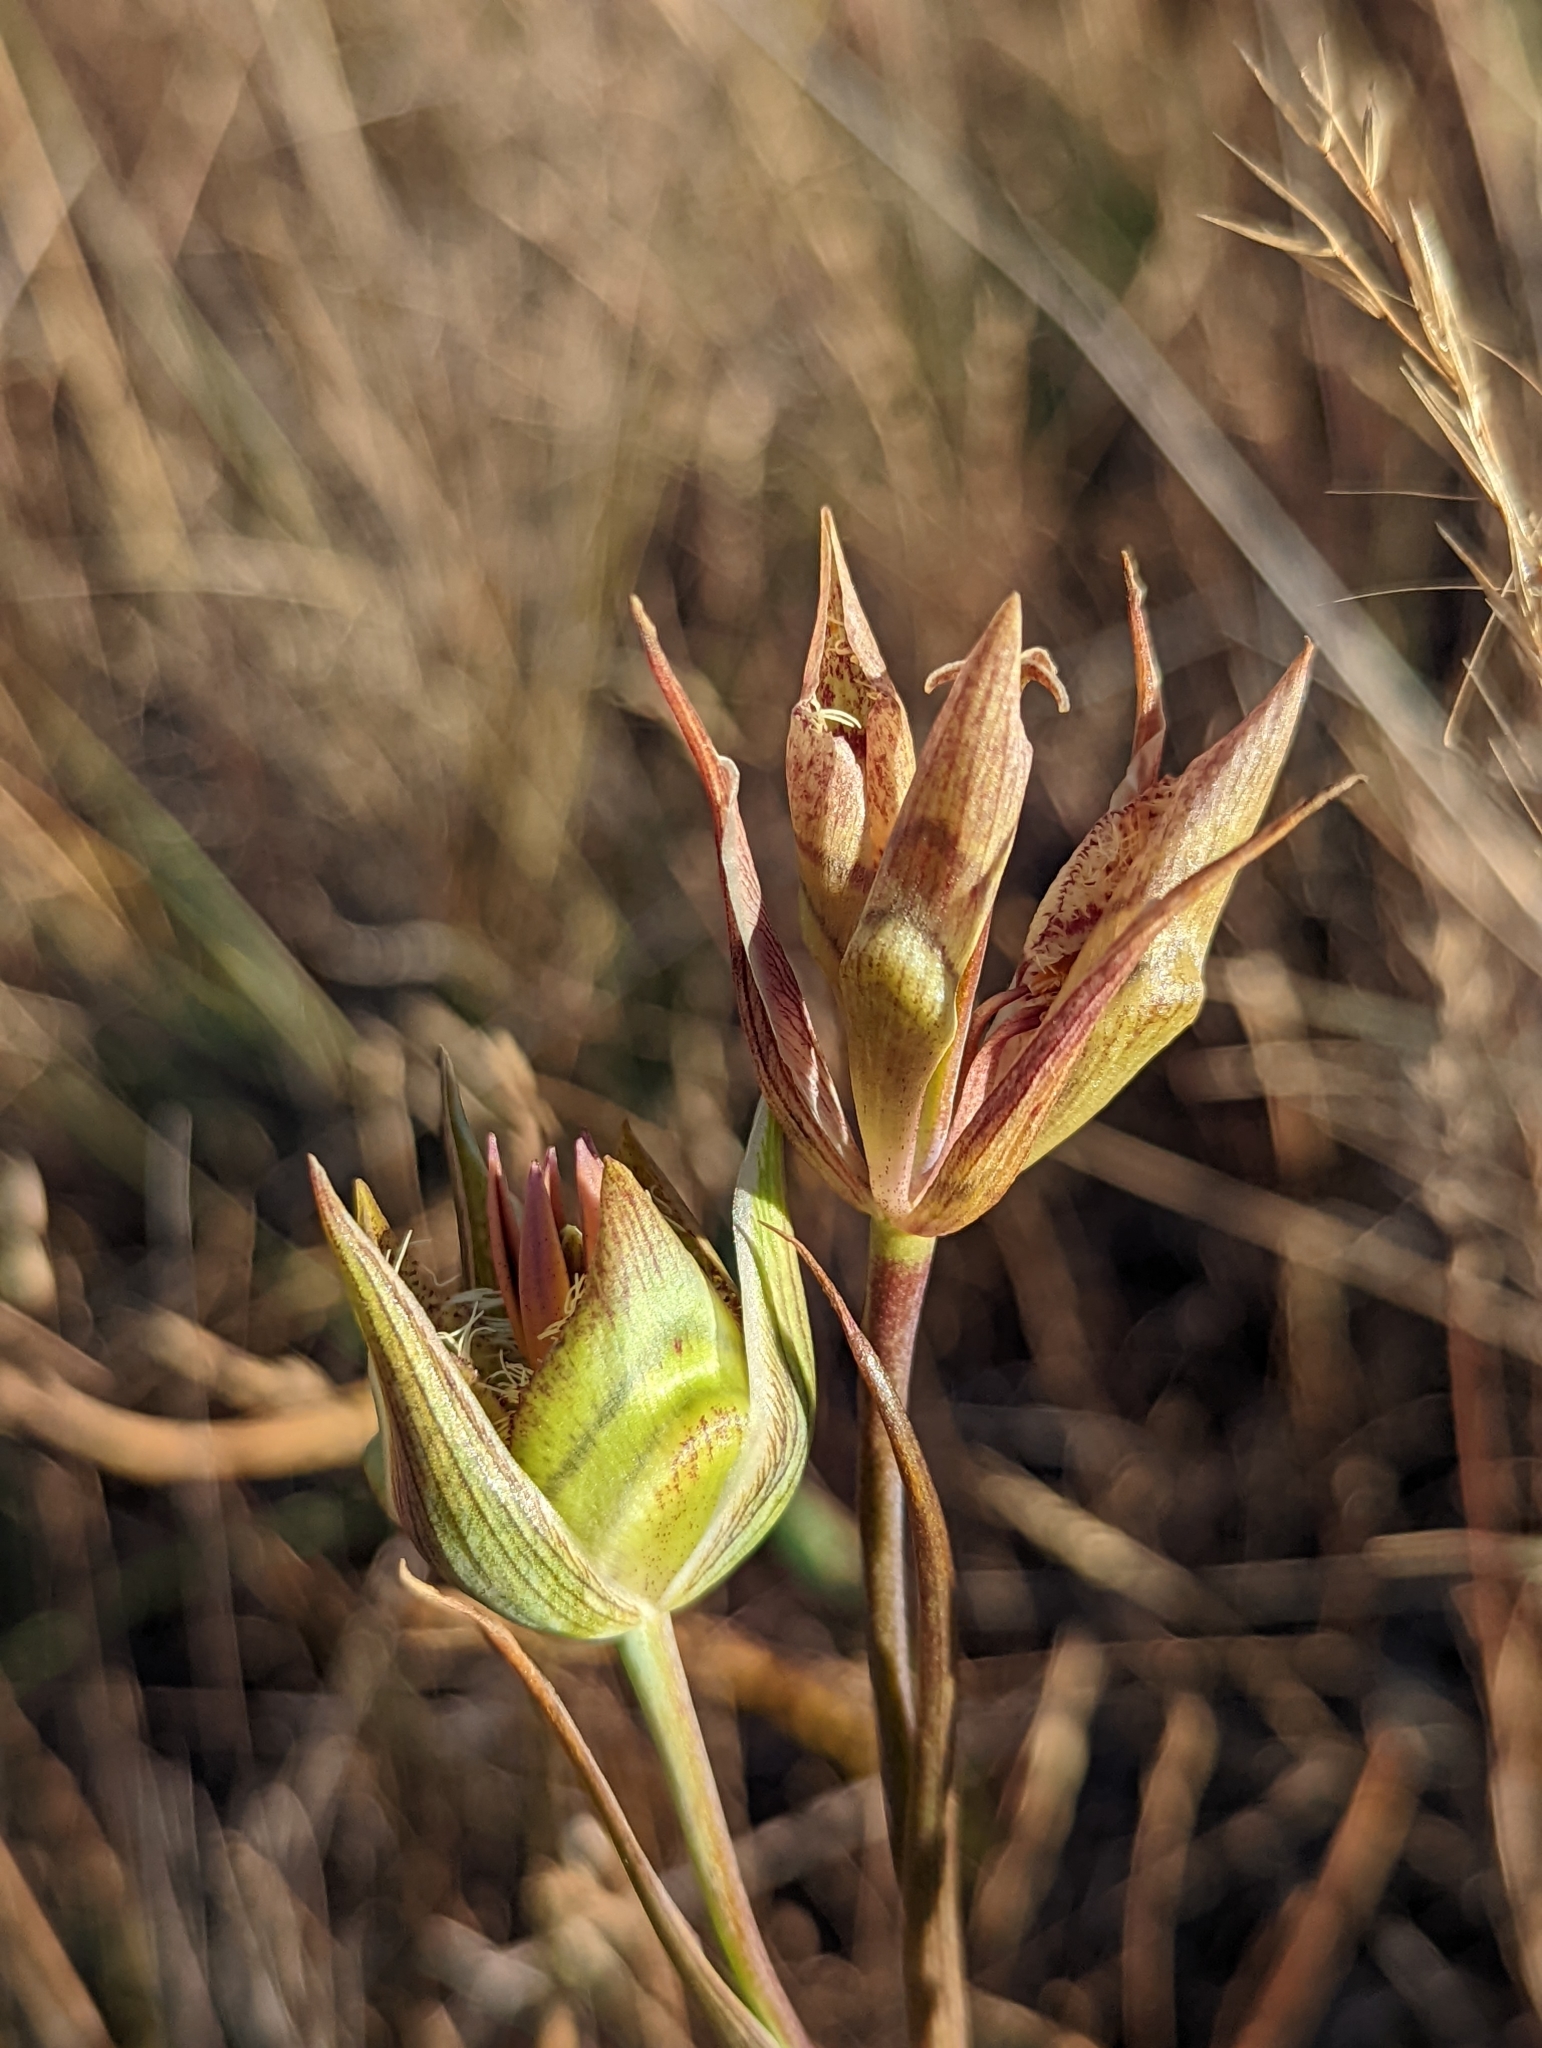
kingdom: Plantae
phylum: Tracheophyta
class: Liliopsida
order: Liliales
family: Liliaceae
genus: Calochortus
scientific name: Calochortus tiburonensis
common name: Tiburon mariposa-lily
